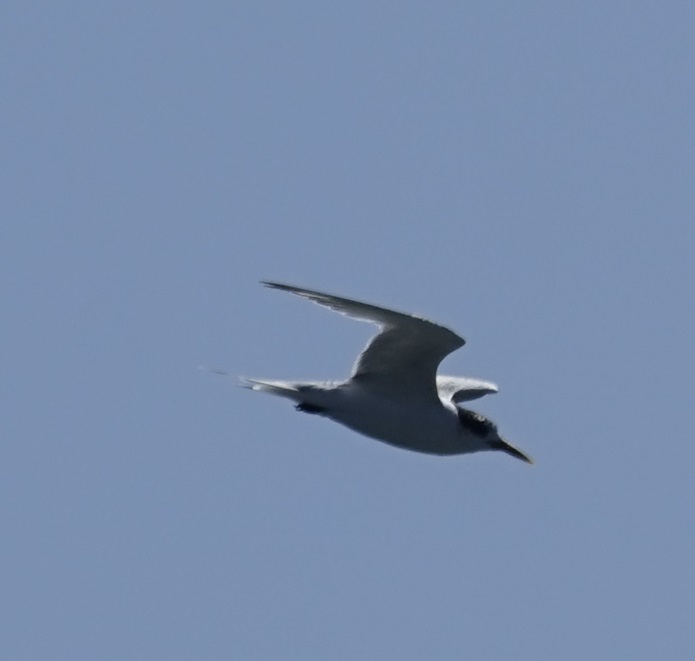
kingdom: Animalia
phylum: Chordata
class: Aves
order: Charadriiformes
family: Laridae
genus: Thalasseus
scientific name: Thalasseus bergii
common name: Greater crested tern
